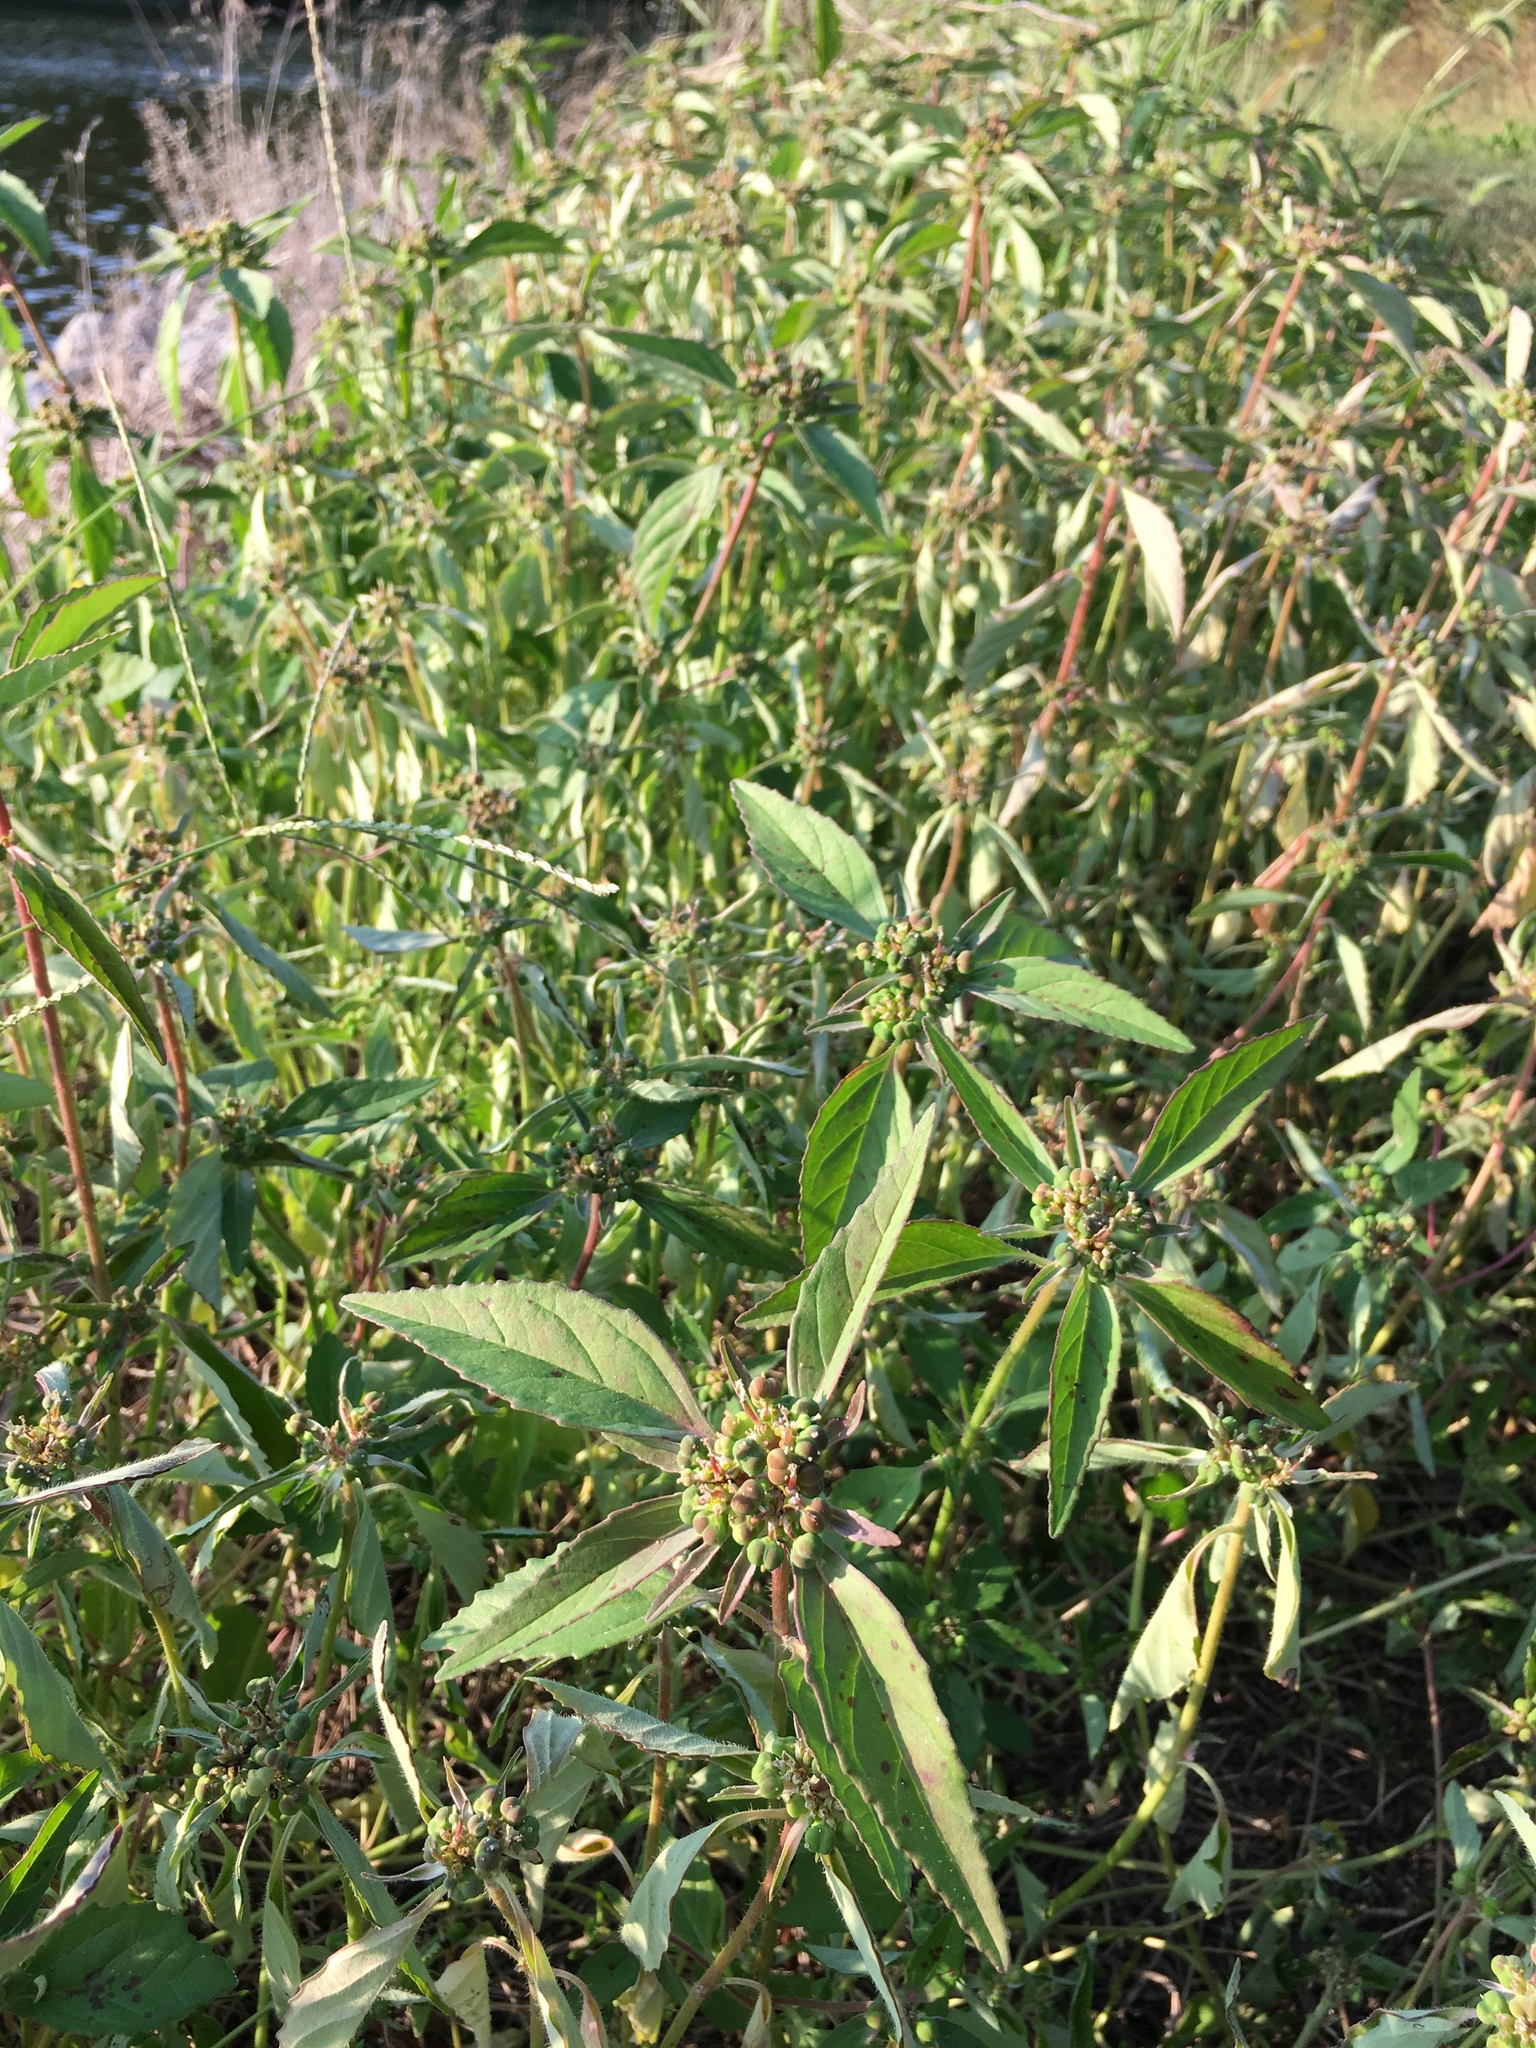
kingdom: Plantae
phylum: Tracheophyta
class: Magnoliopsida
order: Malpighiales
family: Euphorbiaceae
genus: Euphorbia
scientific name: Euphorbia dentata
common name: Dentate spurge
